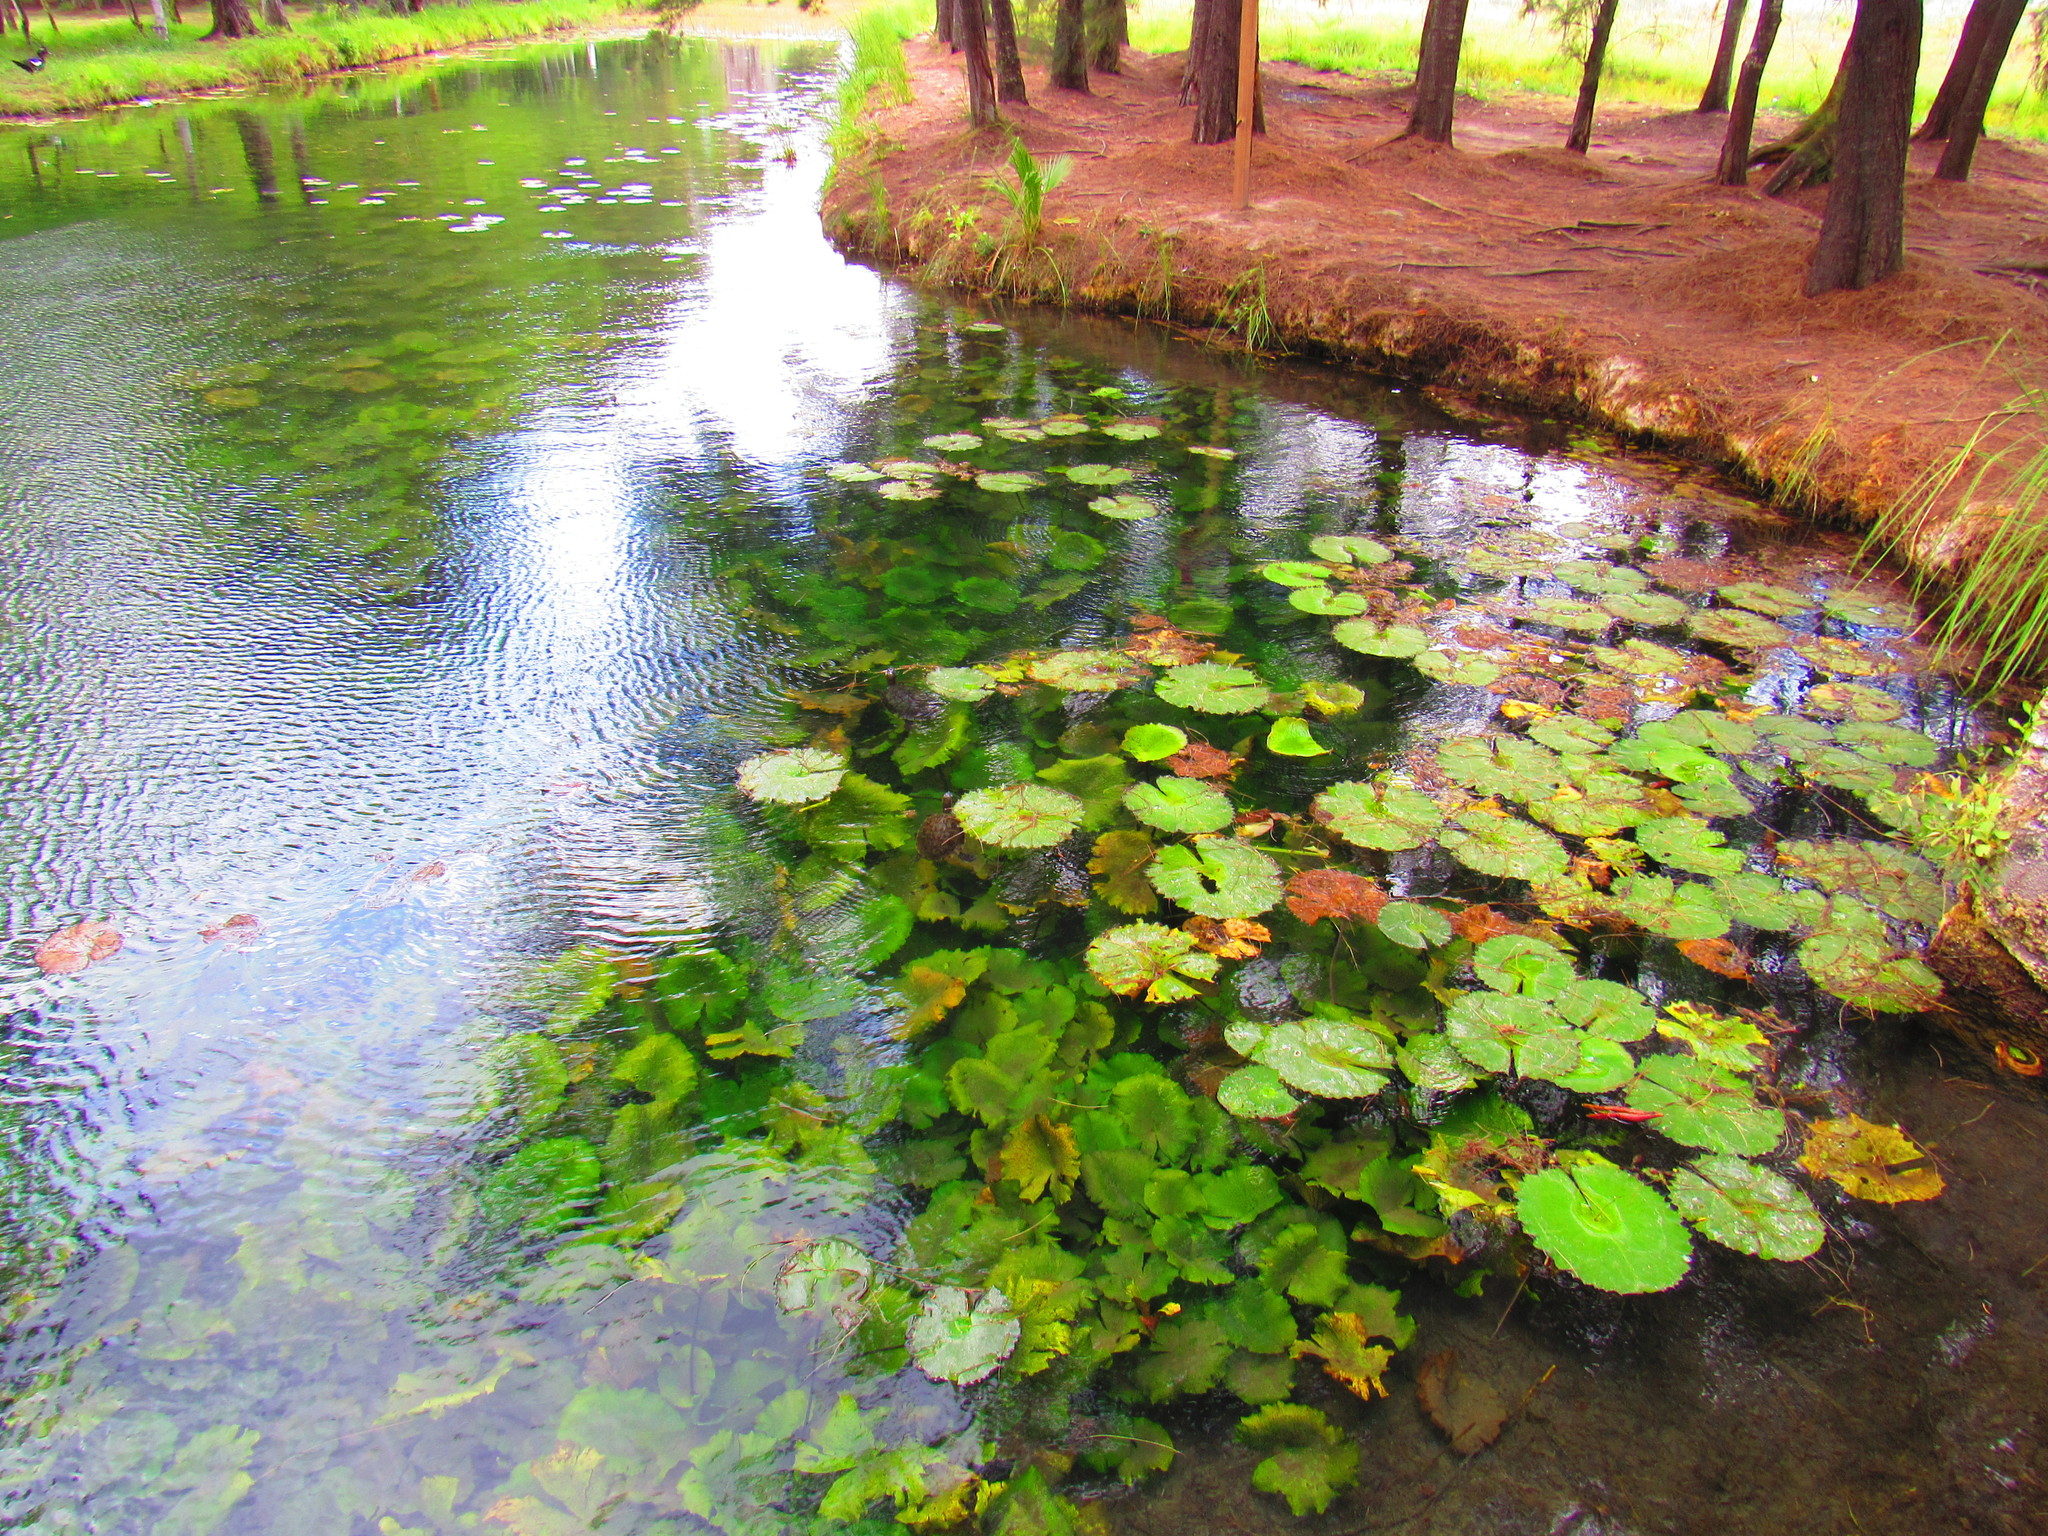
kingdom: Plantae
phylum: Tracheophyta
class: Magnoliopsida
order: Nymphaeales
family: Nymphaeaceae
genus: Nymphaea
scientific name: Nymphaea ampla
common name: Dotleaf waterlily
